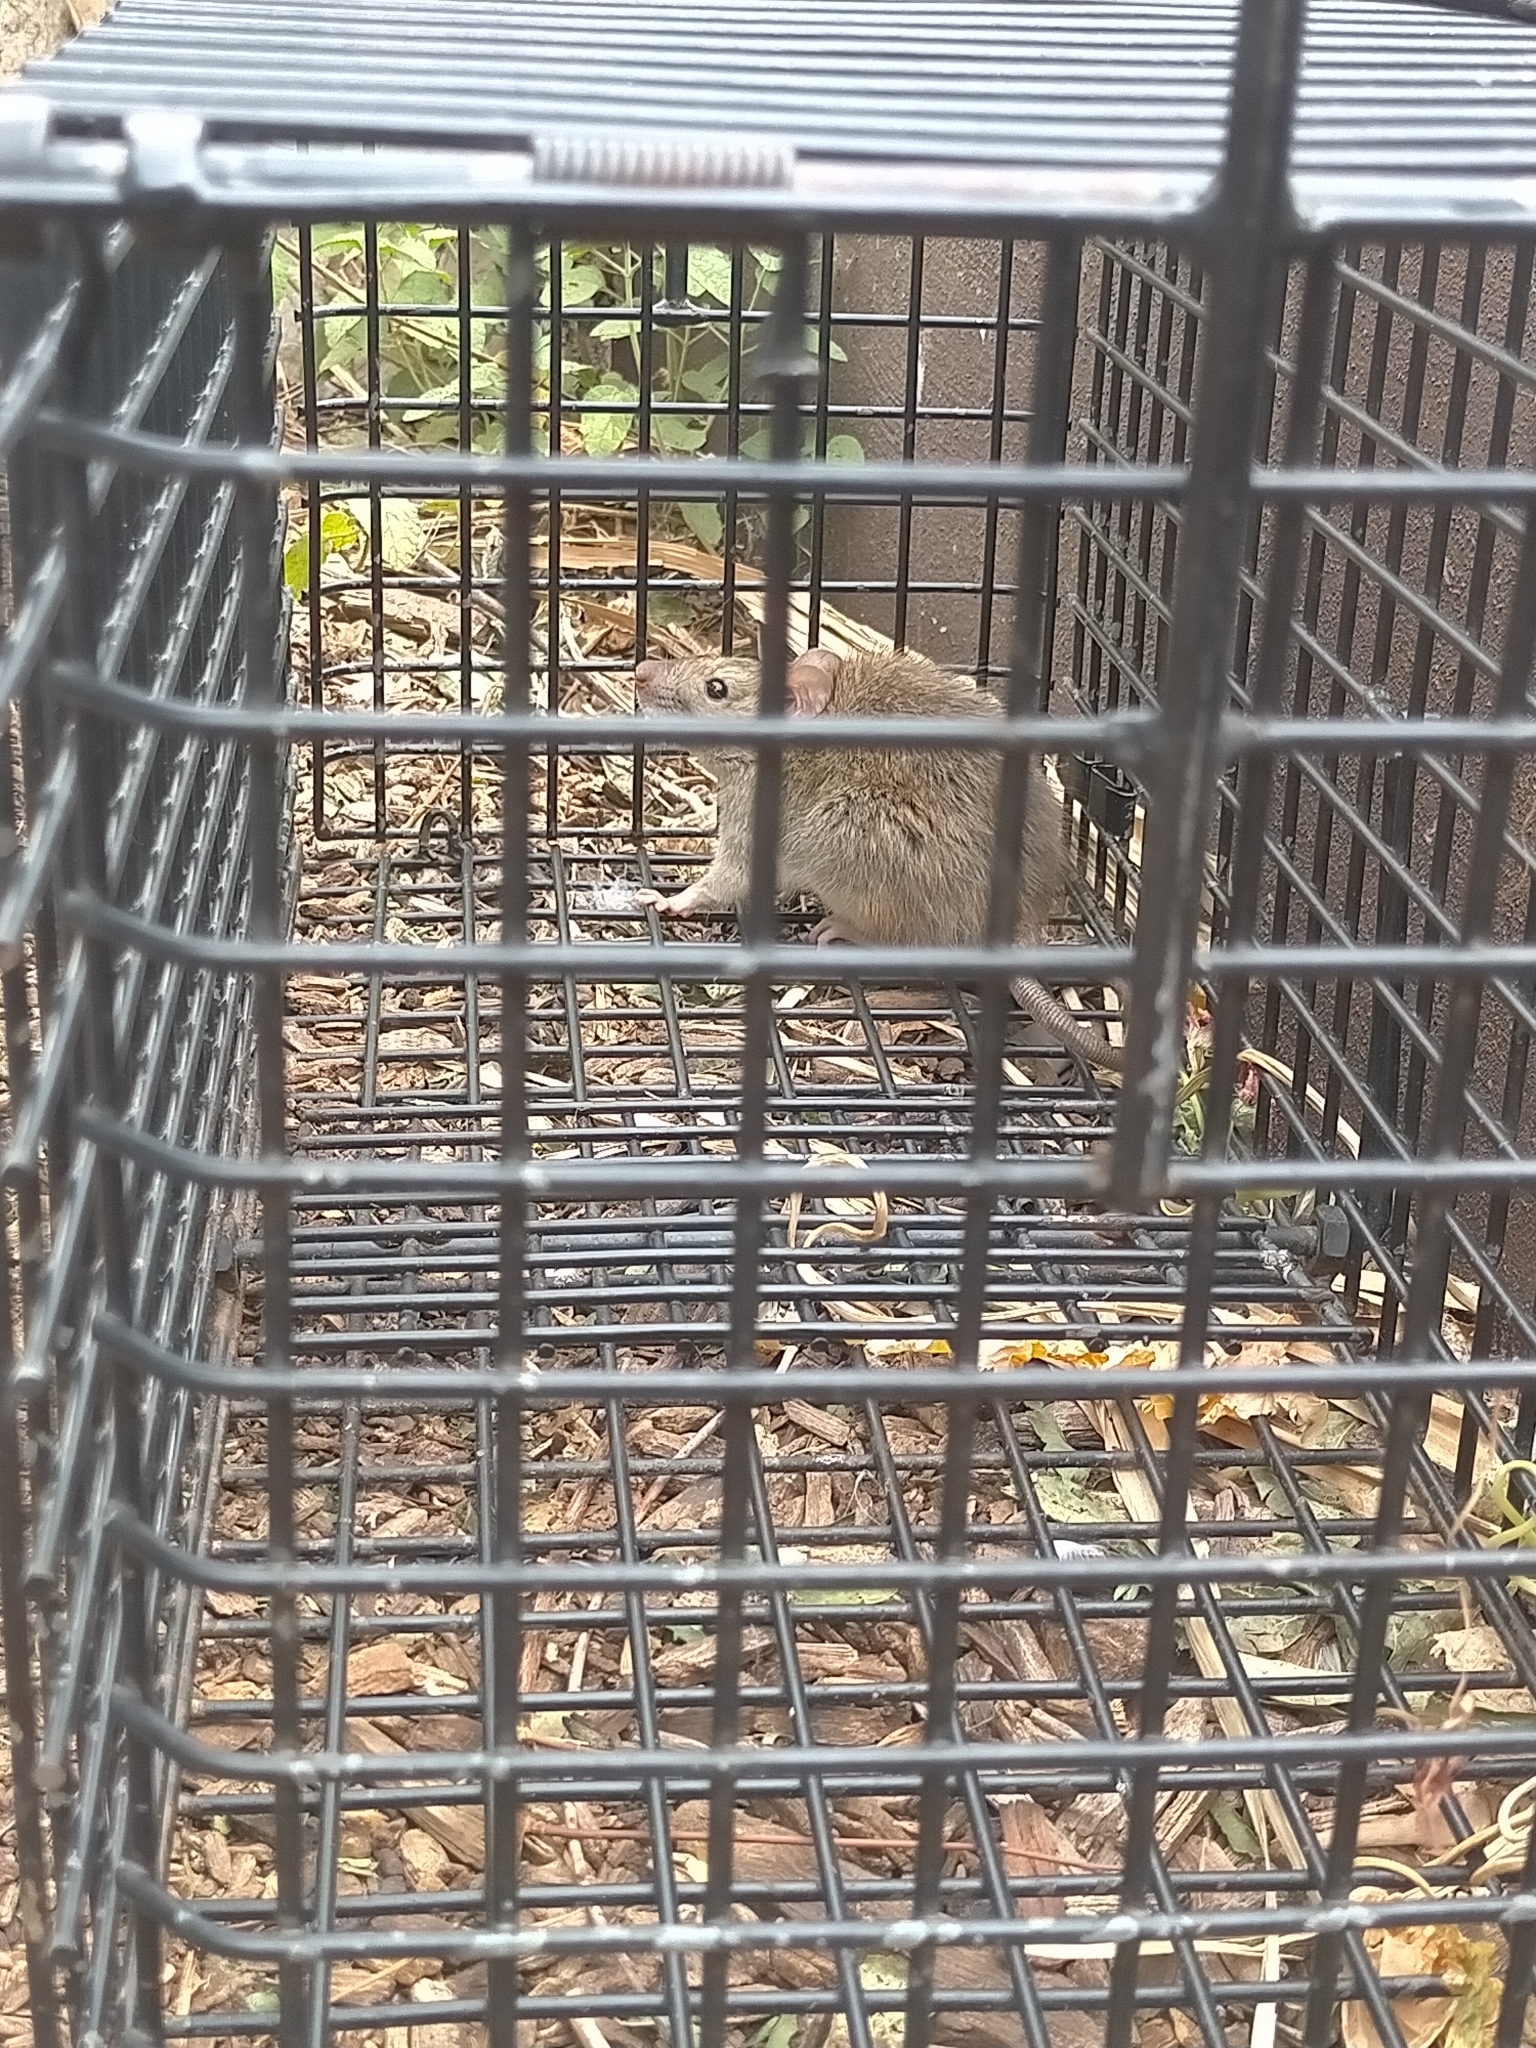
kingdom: Animalia
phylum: Chordata
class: Mammalia
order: Rodentia
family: Muridae
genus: Rattus
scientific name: Rattus rattus
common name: Black rat
